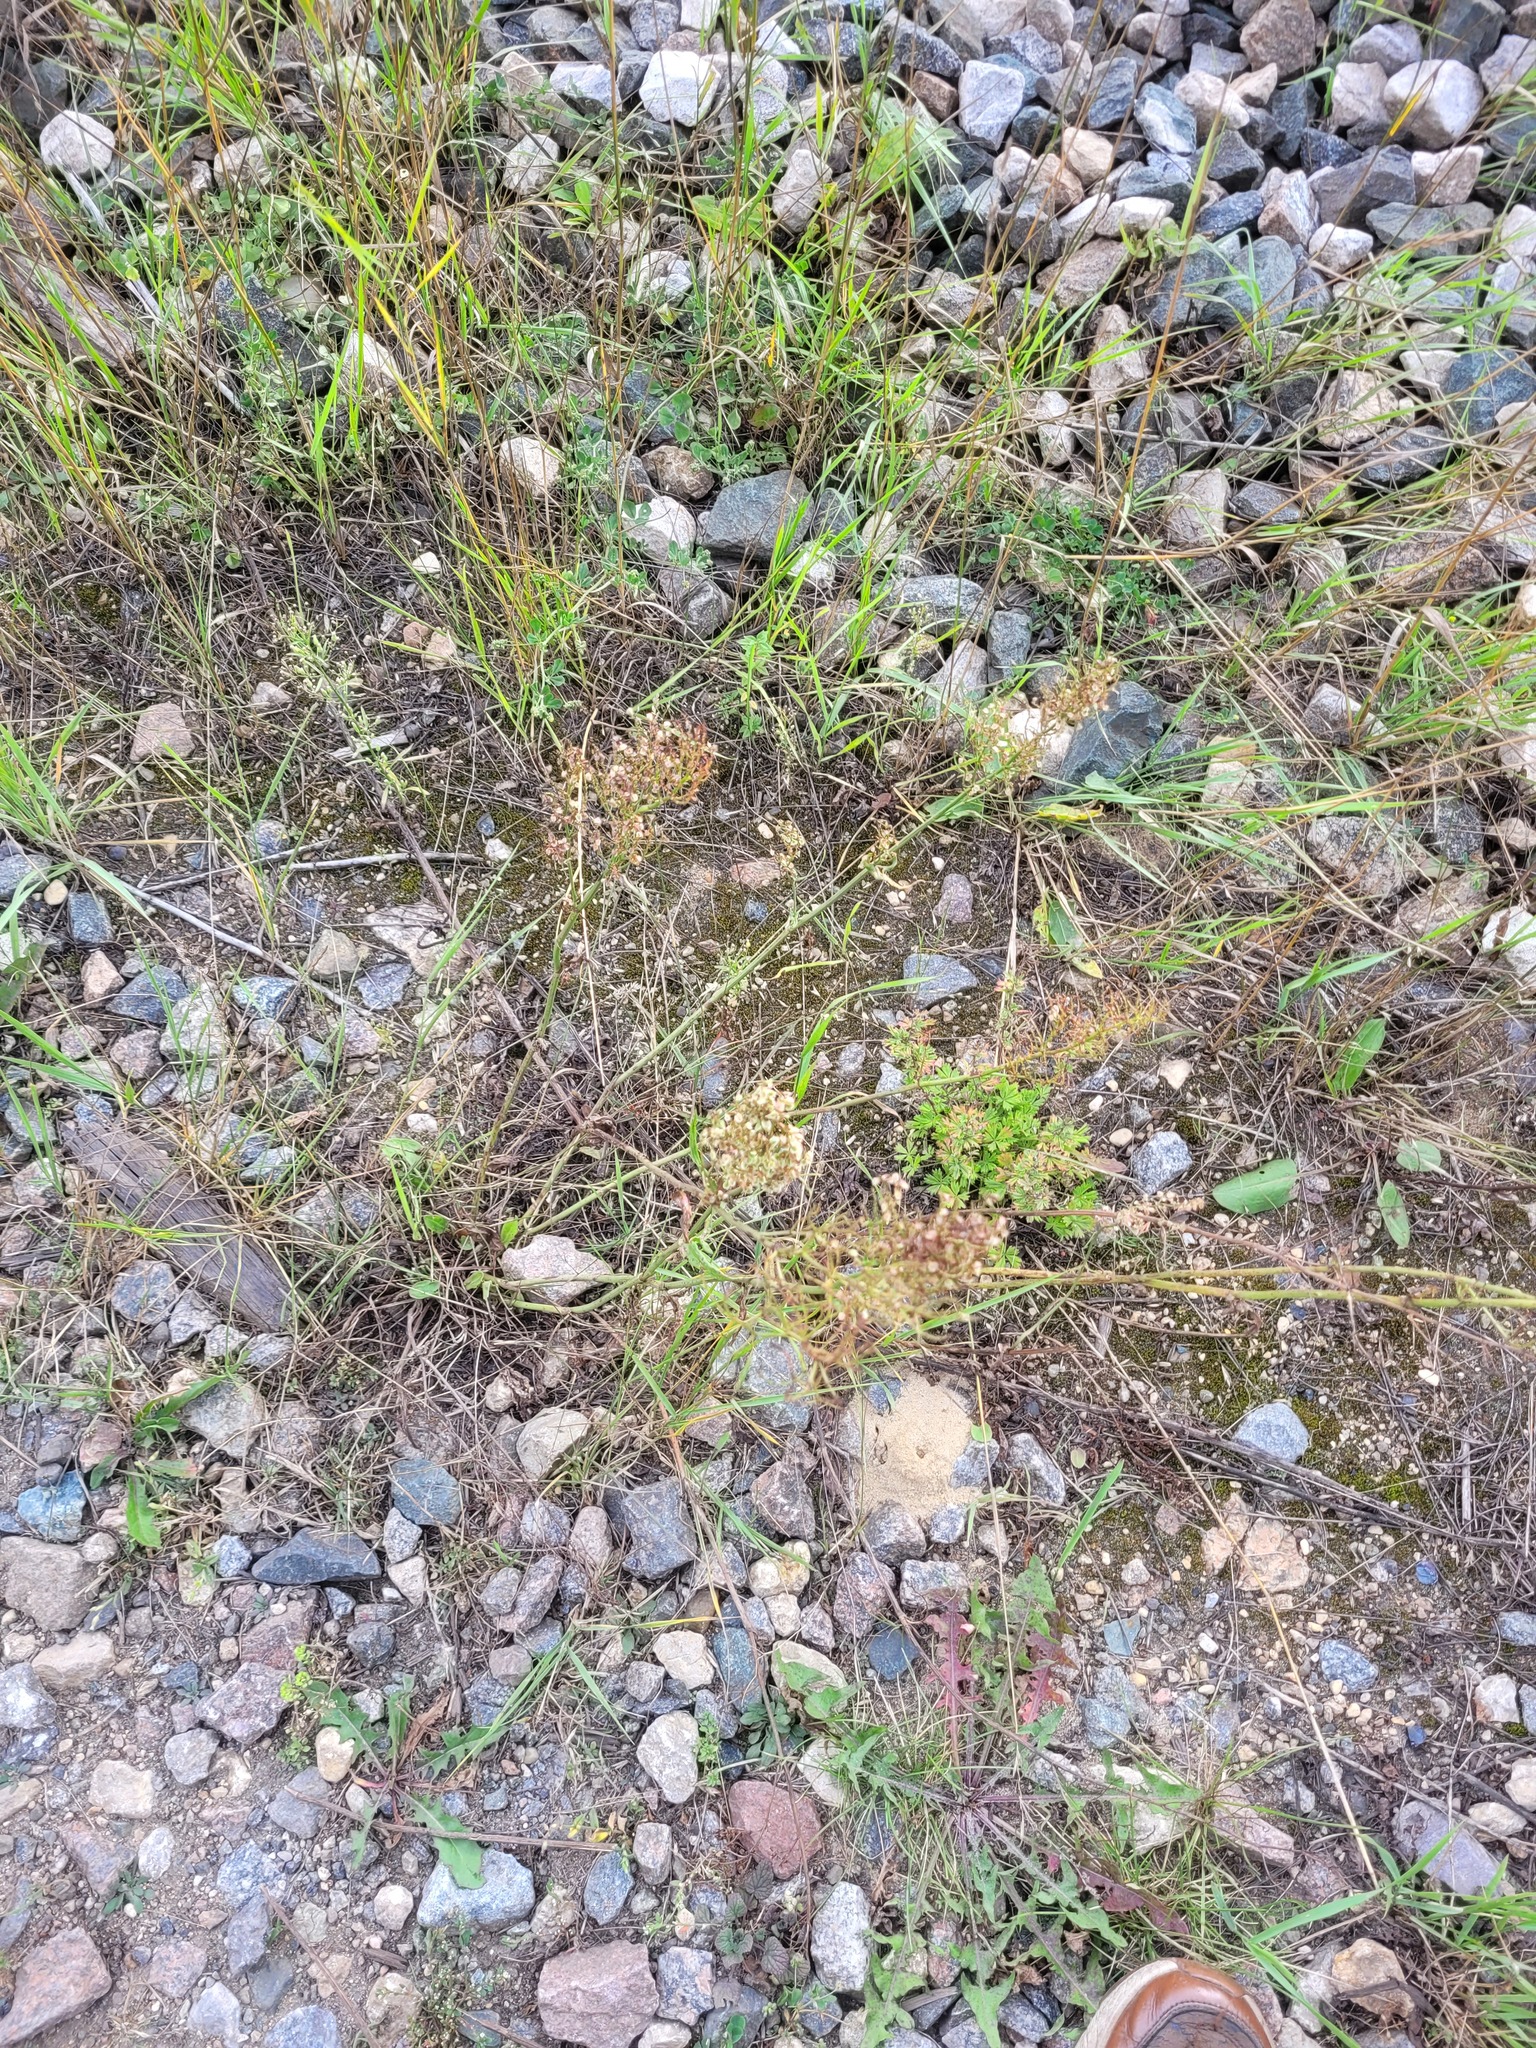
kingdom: Plantae
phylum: Tracheophyta
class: Magnoliopsida
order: Caryophyllales
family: Polygonaceae
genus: Rumex
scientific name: Rumex thyrsiflorus
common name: Garden sorrel
